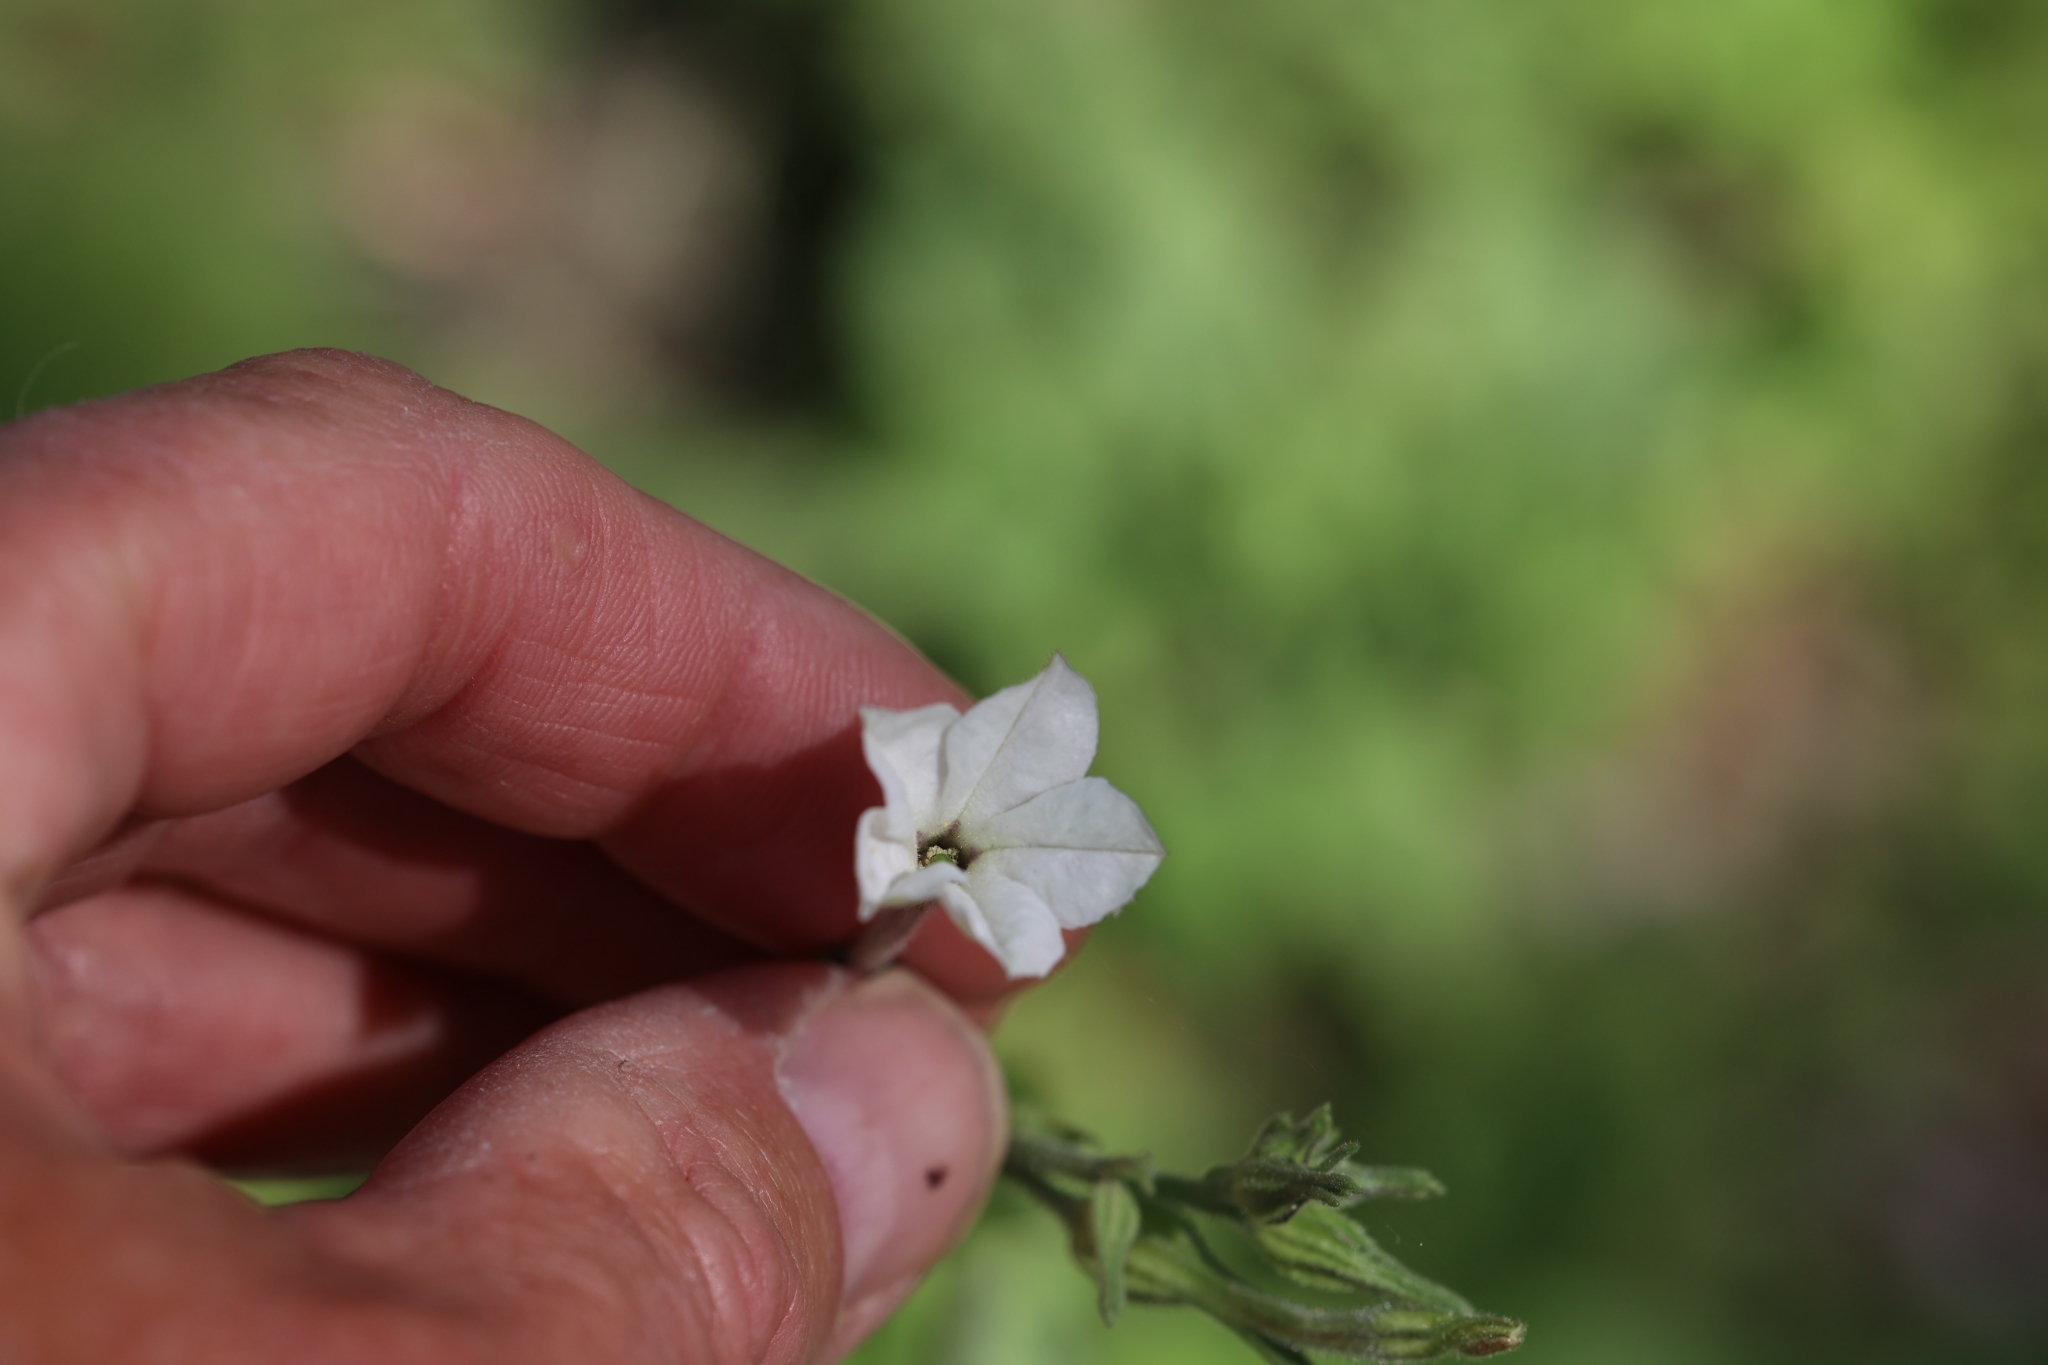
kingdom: Plantae
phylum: Tracheophyta
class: Magnoliopsida
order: Solanales
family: Solanaceae
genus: Nicotiana
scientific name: Nicotiana repanda
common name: Fiddle-leaf tobacco
